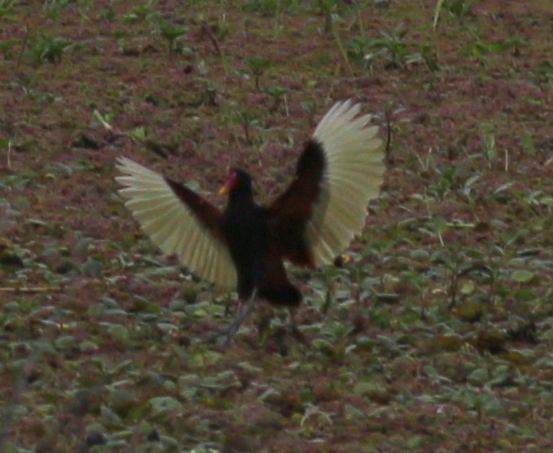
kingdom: Animalia
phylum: Chordata
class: Aves
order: Charadriiformes
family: Jacanidae
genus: Jacana
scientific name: Jacana jacana
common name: Wattled jacana
